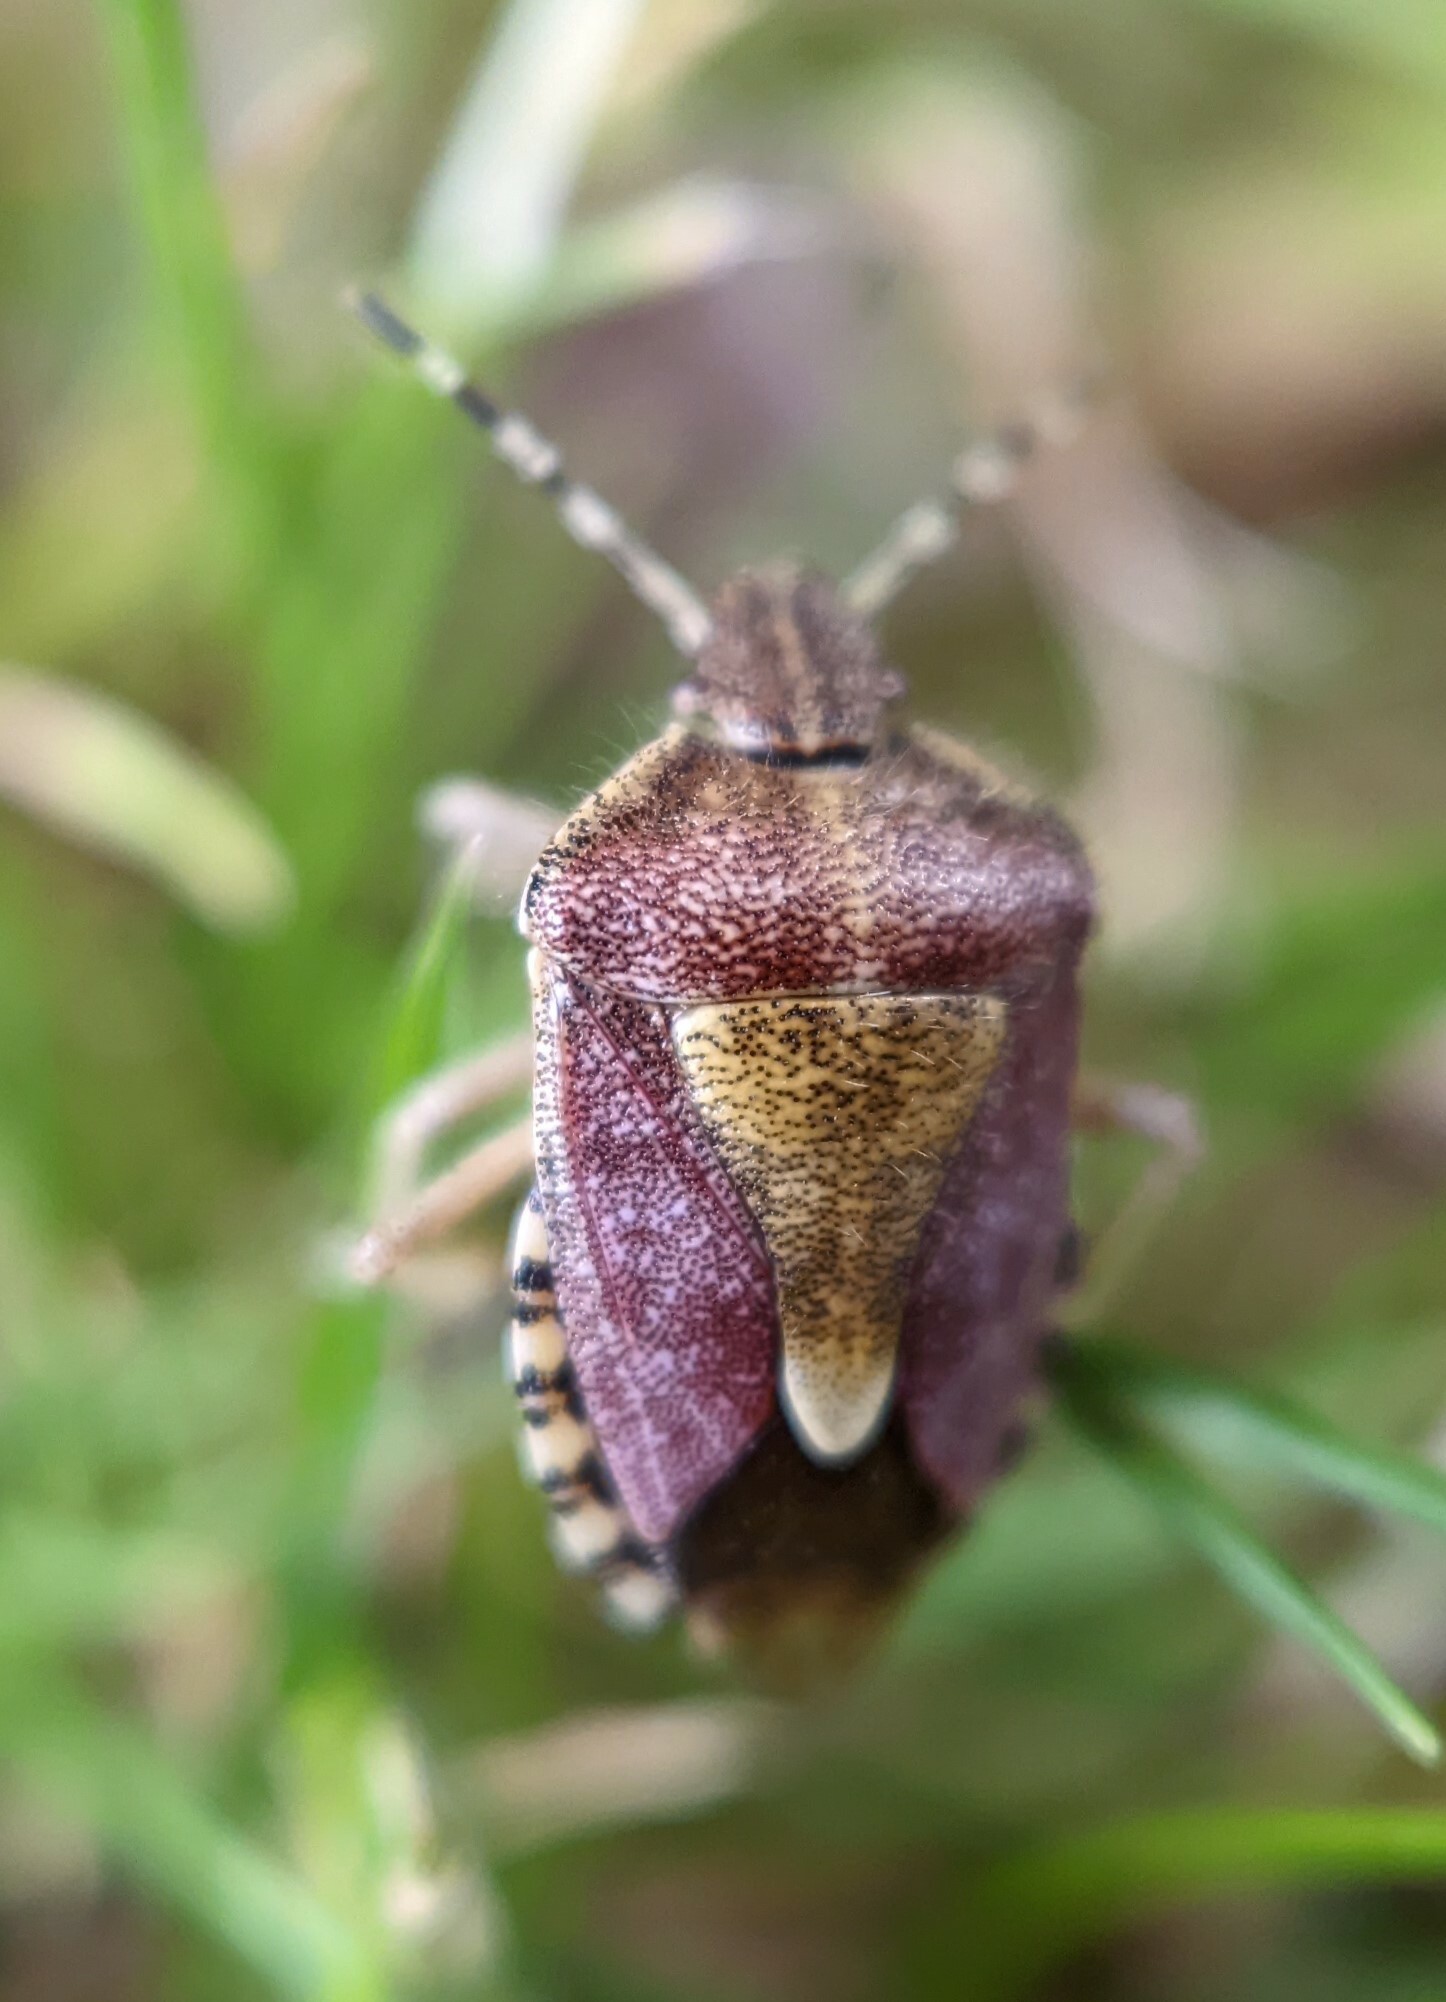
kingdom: Animalia
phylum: Arthropoda
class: Insecta
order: Hemiptera
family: Pentatomidae
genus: Dolycoris
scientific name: Dolycoris baccarum
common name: Sloe bug
